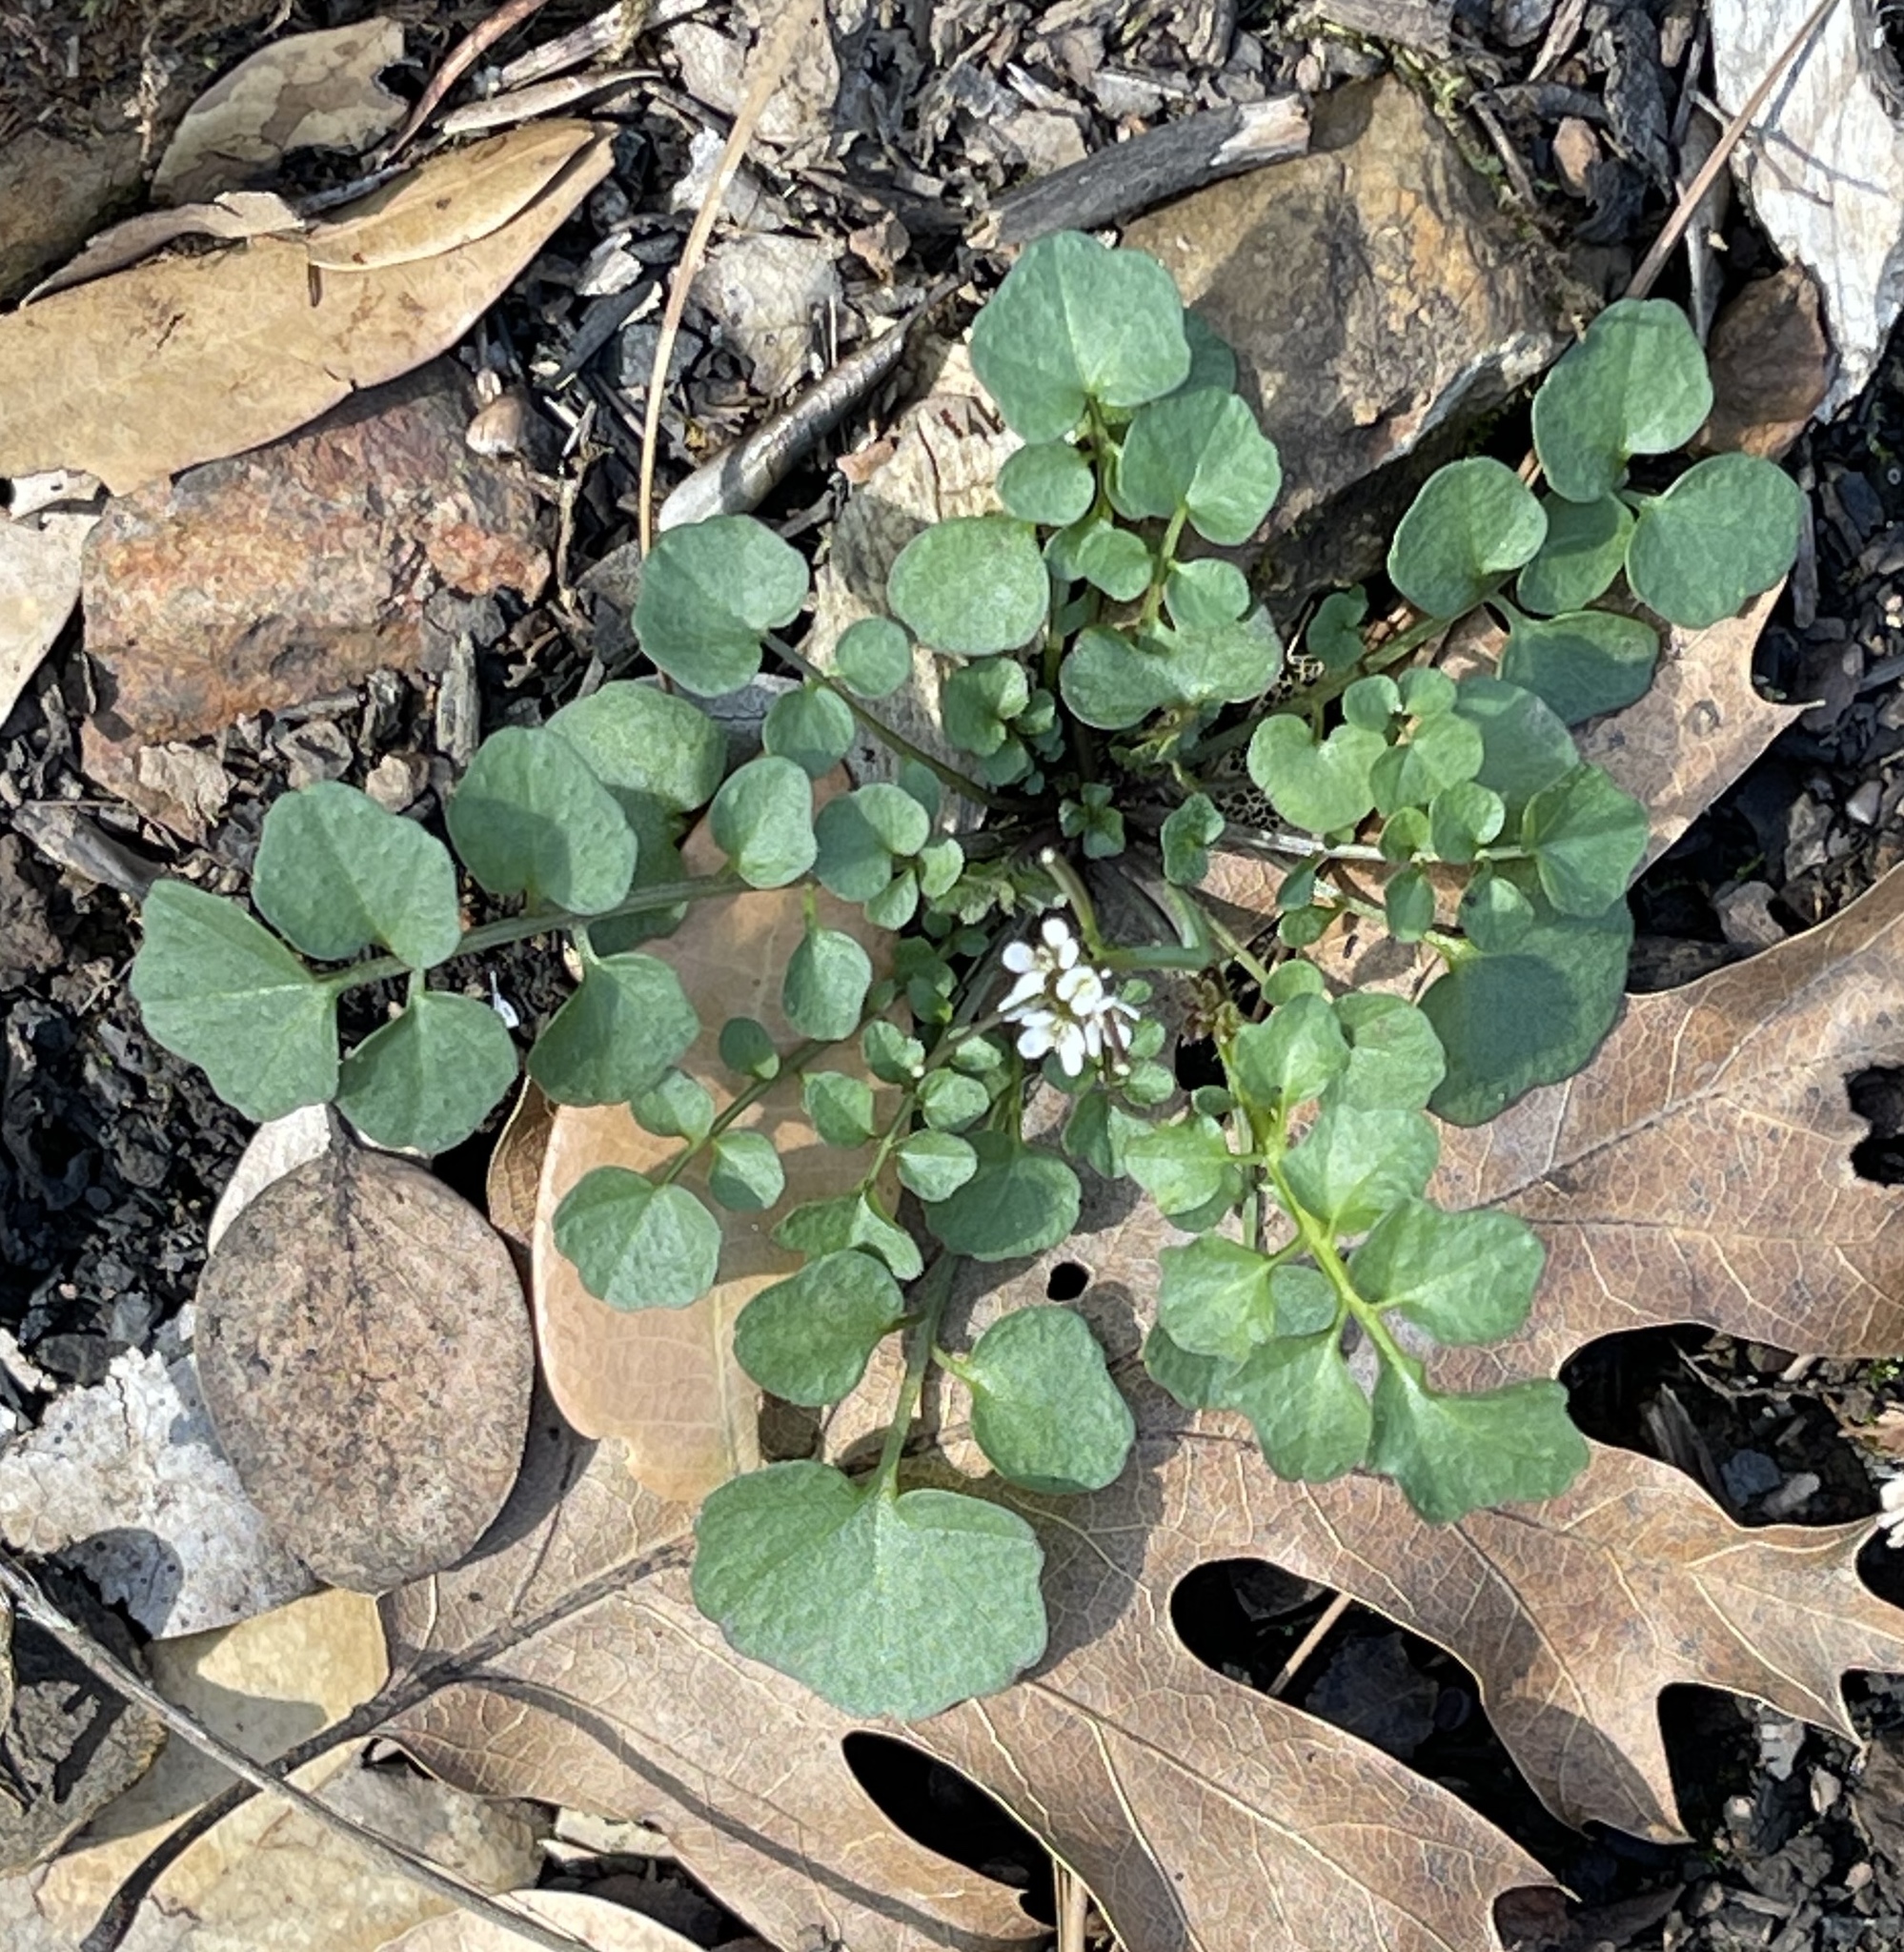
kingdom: Plantae
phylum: Tracheophyta
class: Magnoliopsida
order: Brassicales
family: Brassicaceae
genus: Cardamine
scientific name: Cardamine hirsuta
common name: Hairy bittercress
